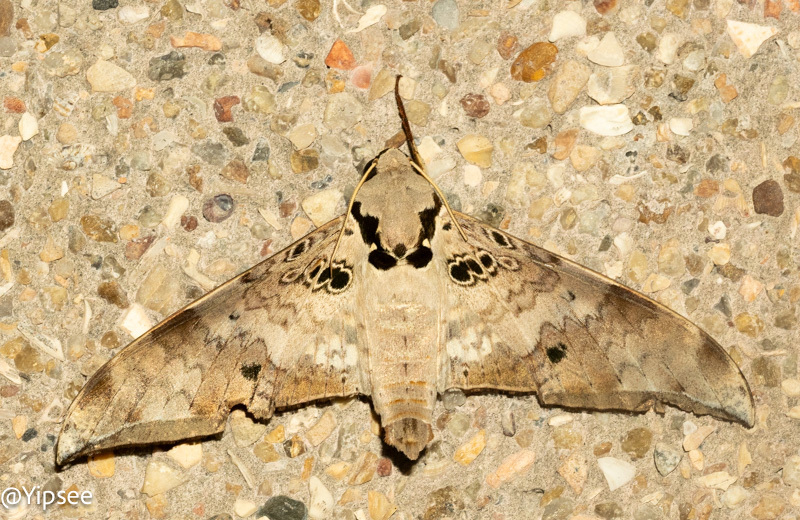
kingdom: Animalia
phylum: Arthropoda
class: Insecta
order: Lepidoptera
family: Sphingidae
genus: Ambulyx
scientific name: Ambulyx canescens
